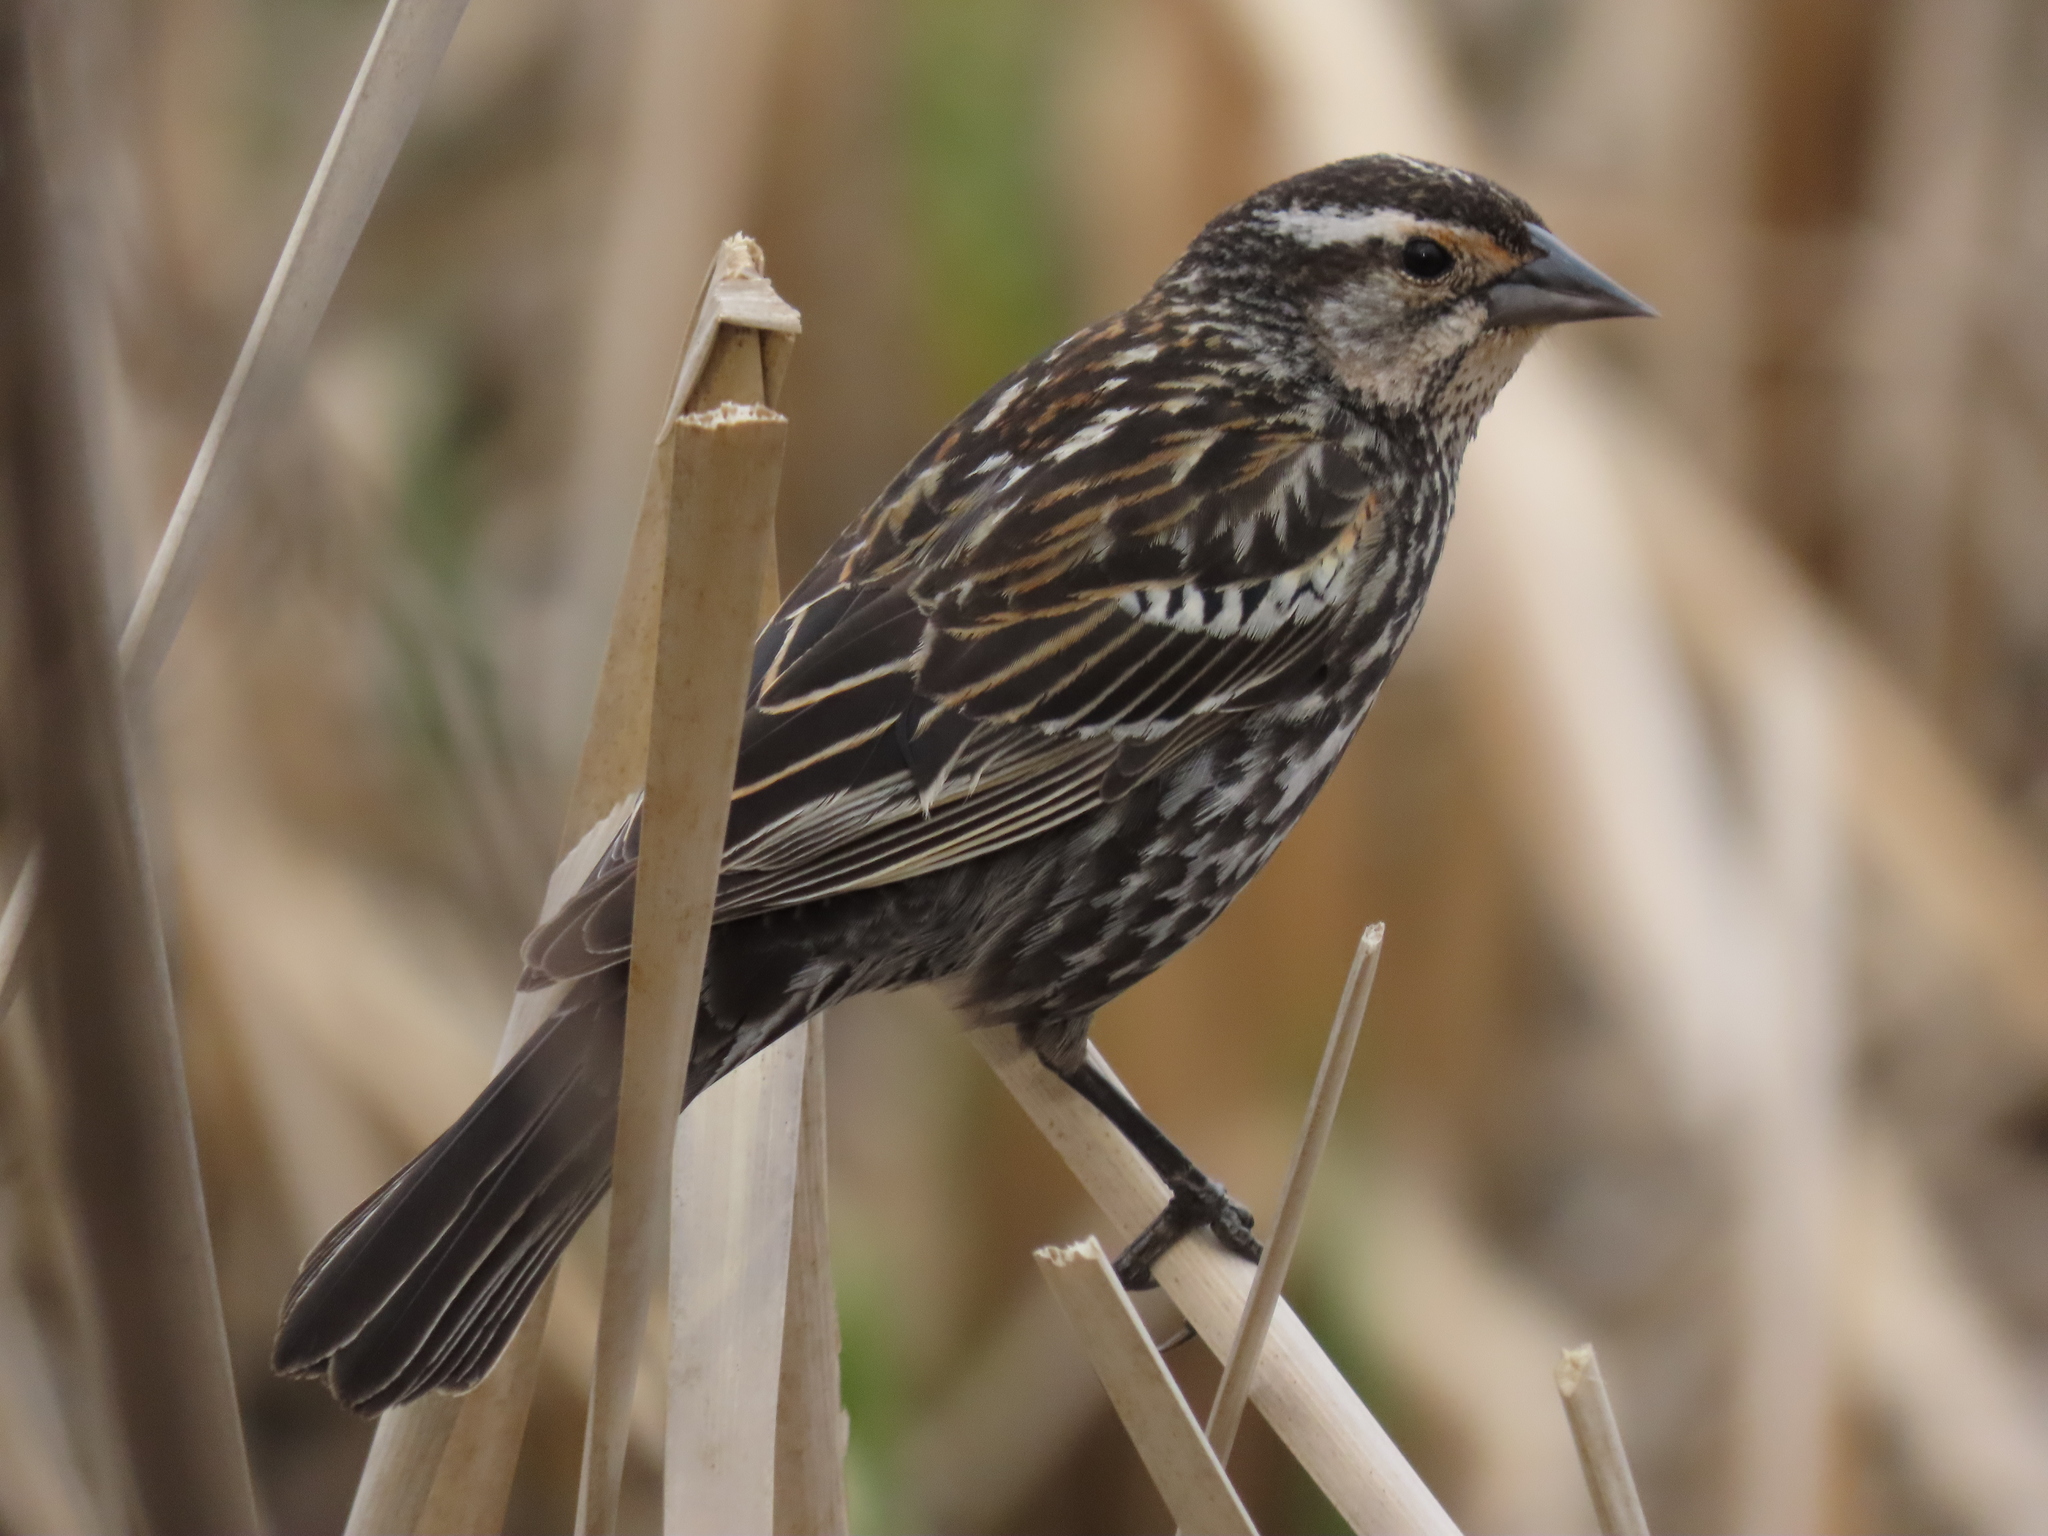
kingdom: Animalia
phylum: Chordata
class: Aves
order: Passeriformes
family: Icteridae
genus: Agelaius
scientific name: Agelaius phoeniceus
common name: Red-winged blackbird
